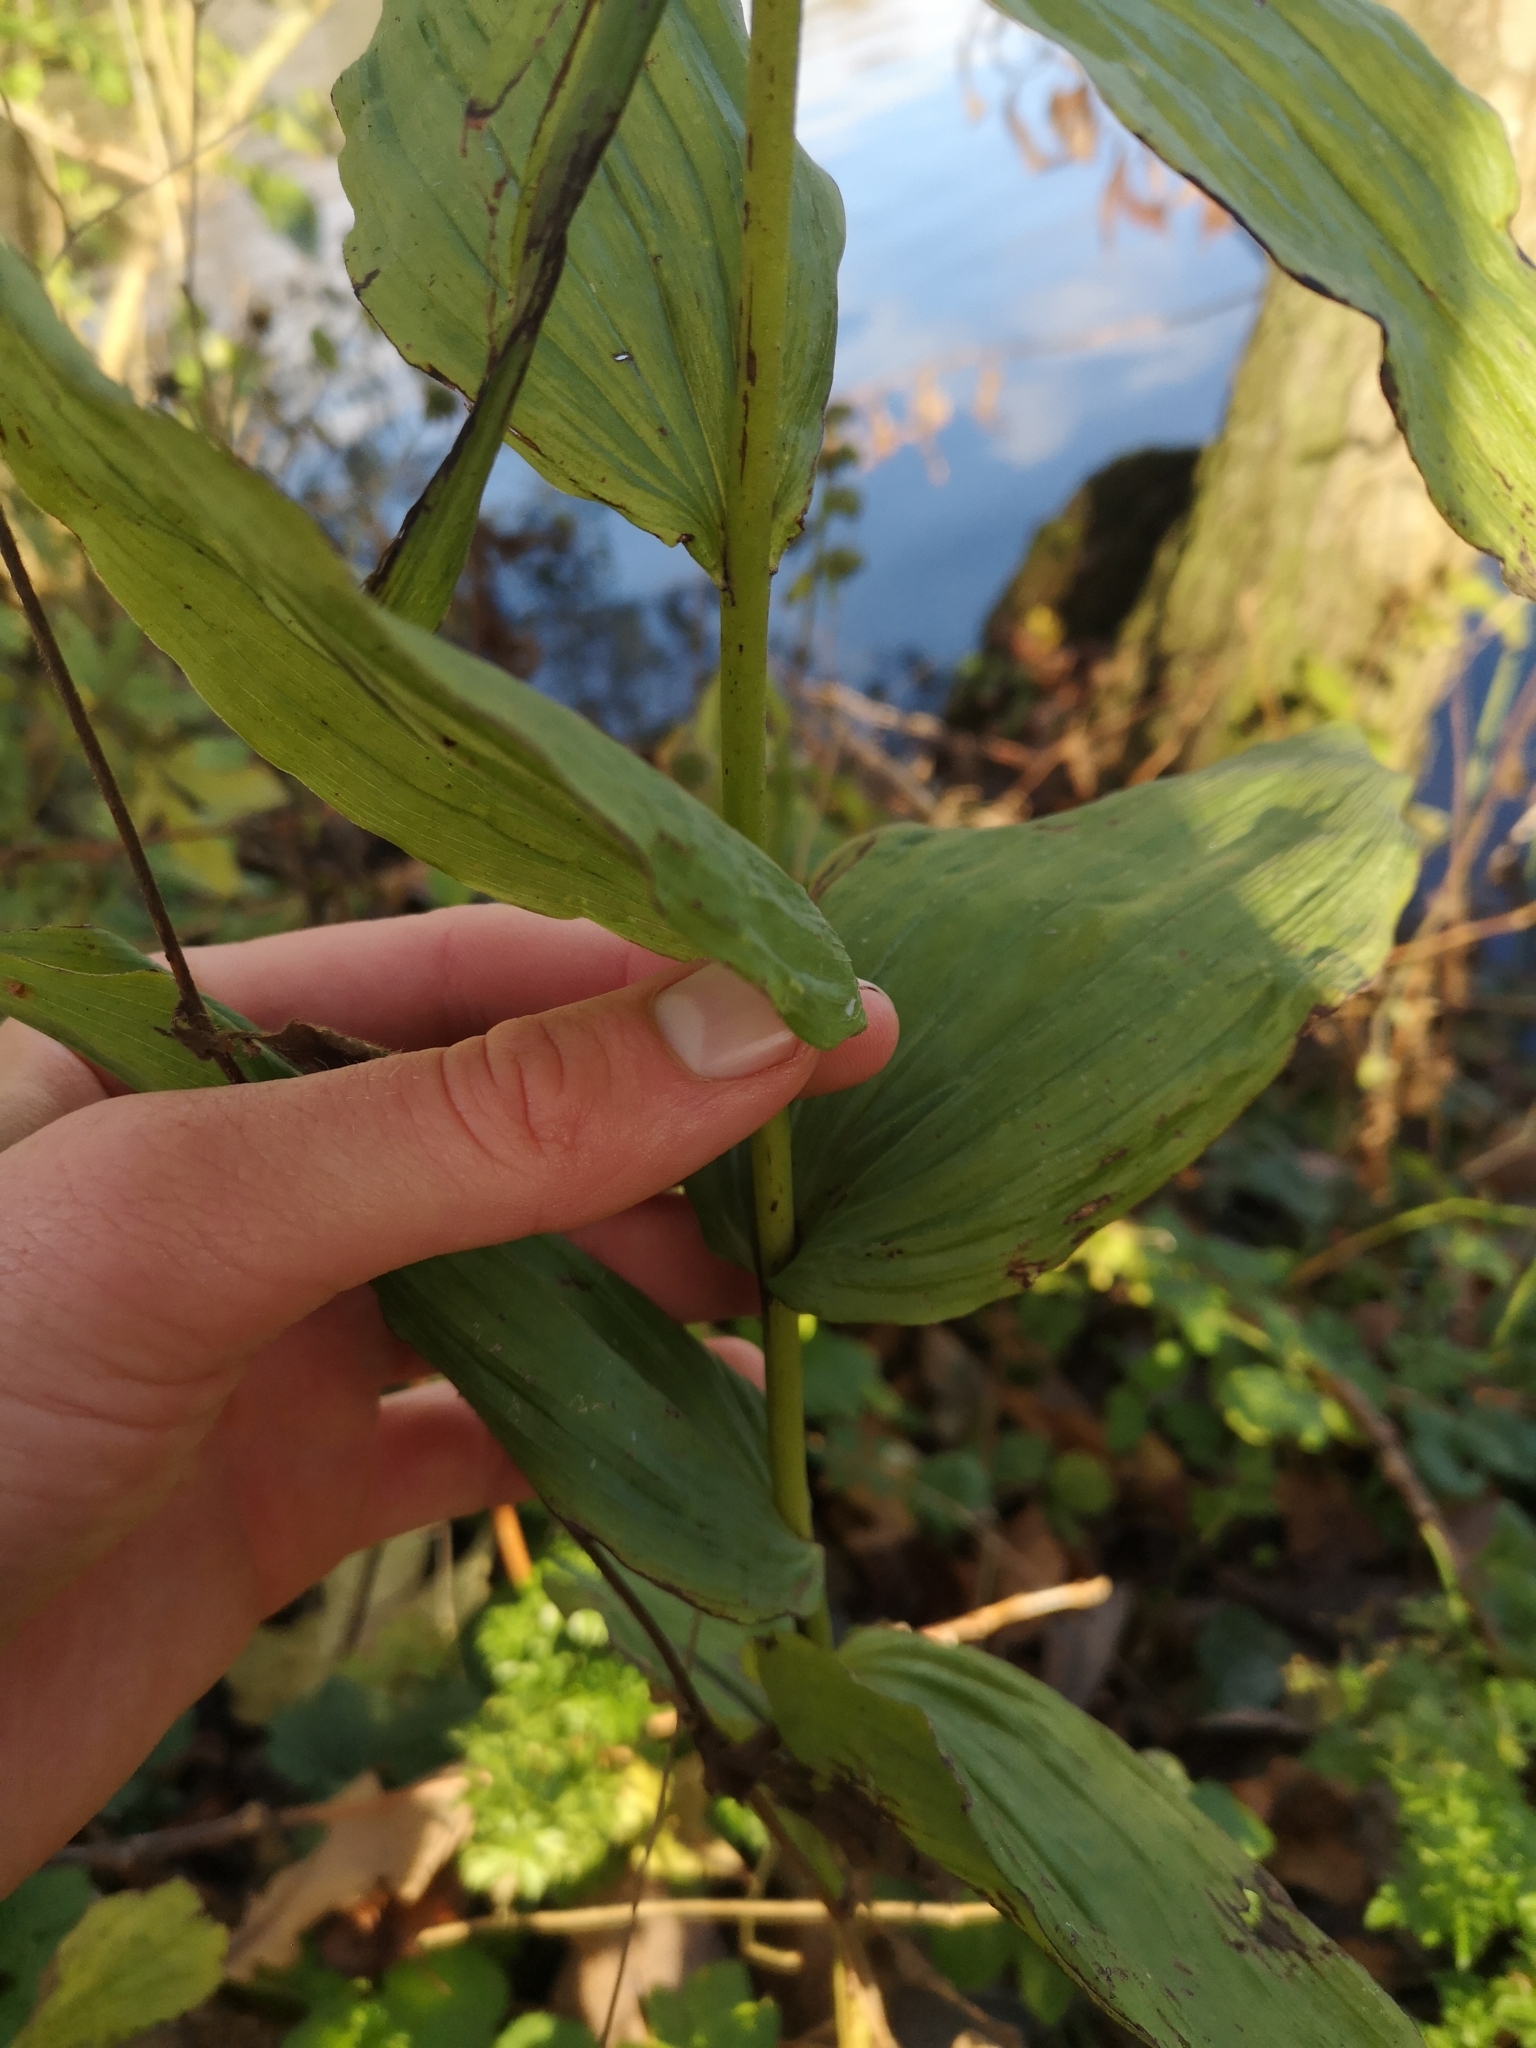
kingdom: Plantae
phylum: Tracheophyta
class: Liliopsida
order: Asparagales
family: Orchidaceae
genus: Epipactis
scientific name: Epipactis helleborine
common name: Broad-leaved helleborine
